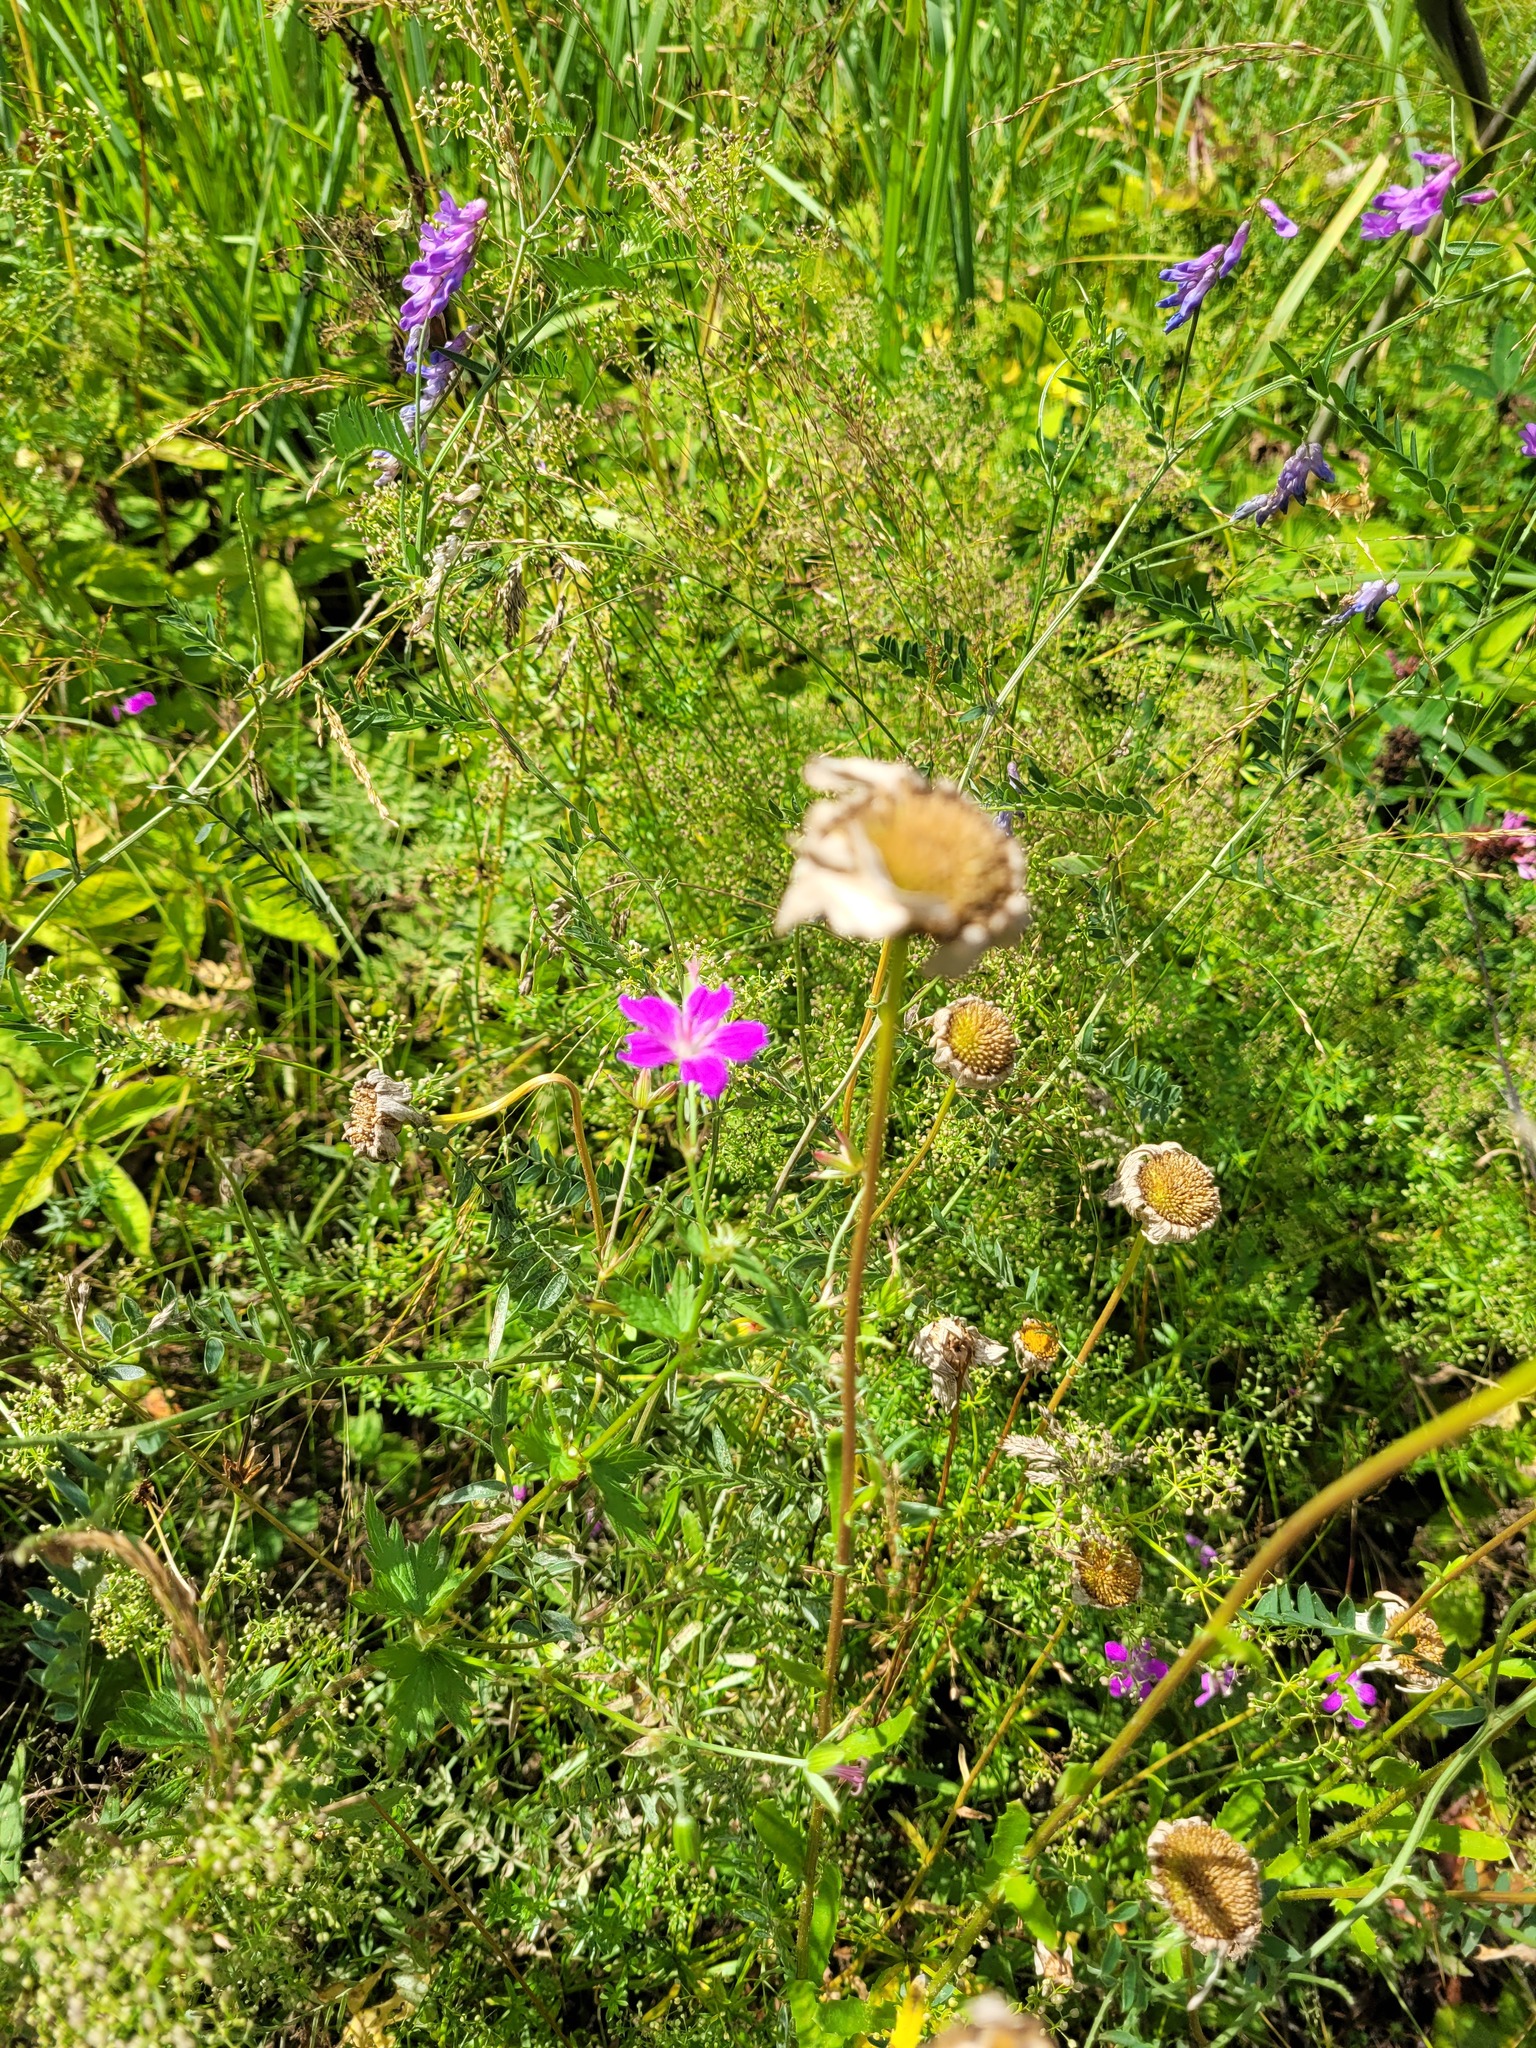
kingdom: Plantae
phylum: Tracheophyta
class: Magnoliopsida
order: Geraniales
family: Geraniaceae
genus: Geranium
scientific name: Geranium palustre
